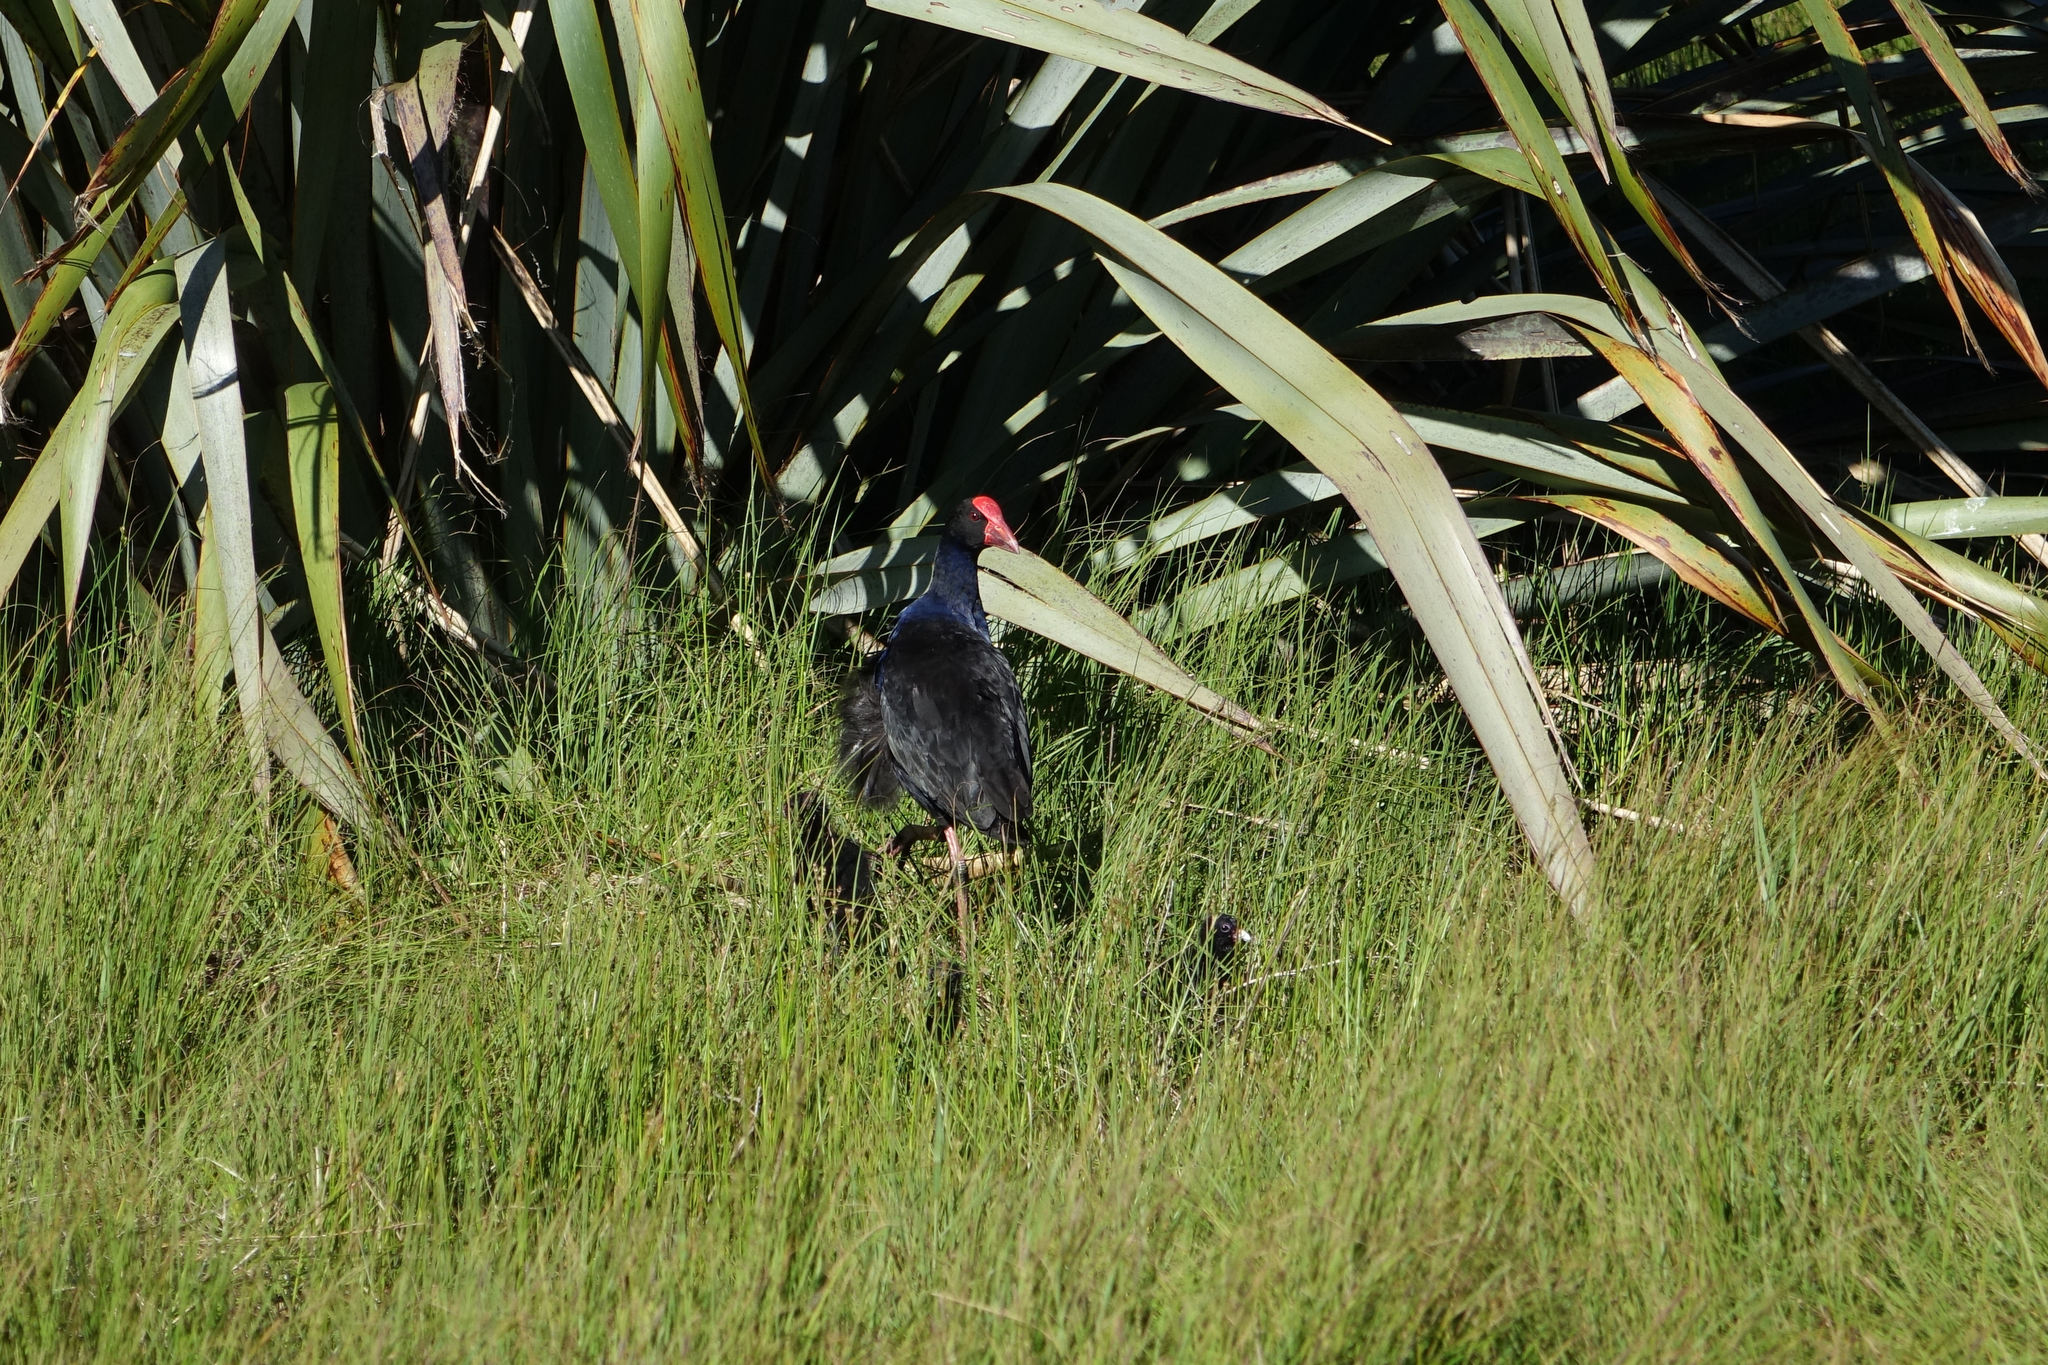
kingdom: Animalia
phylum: Chordata
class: Aves
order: Gruiformes
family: Rallidae
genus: Porphyrio
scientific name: Porphyrio melanotus
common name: Australasian swamphen
